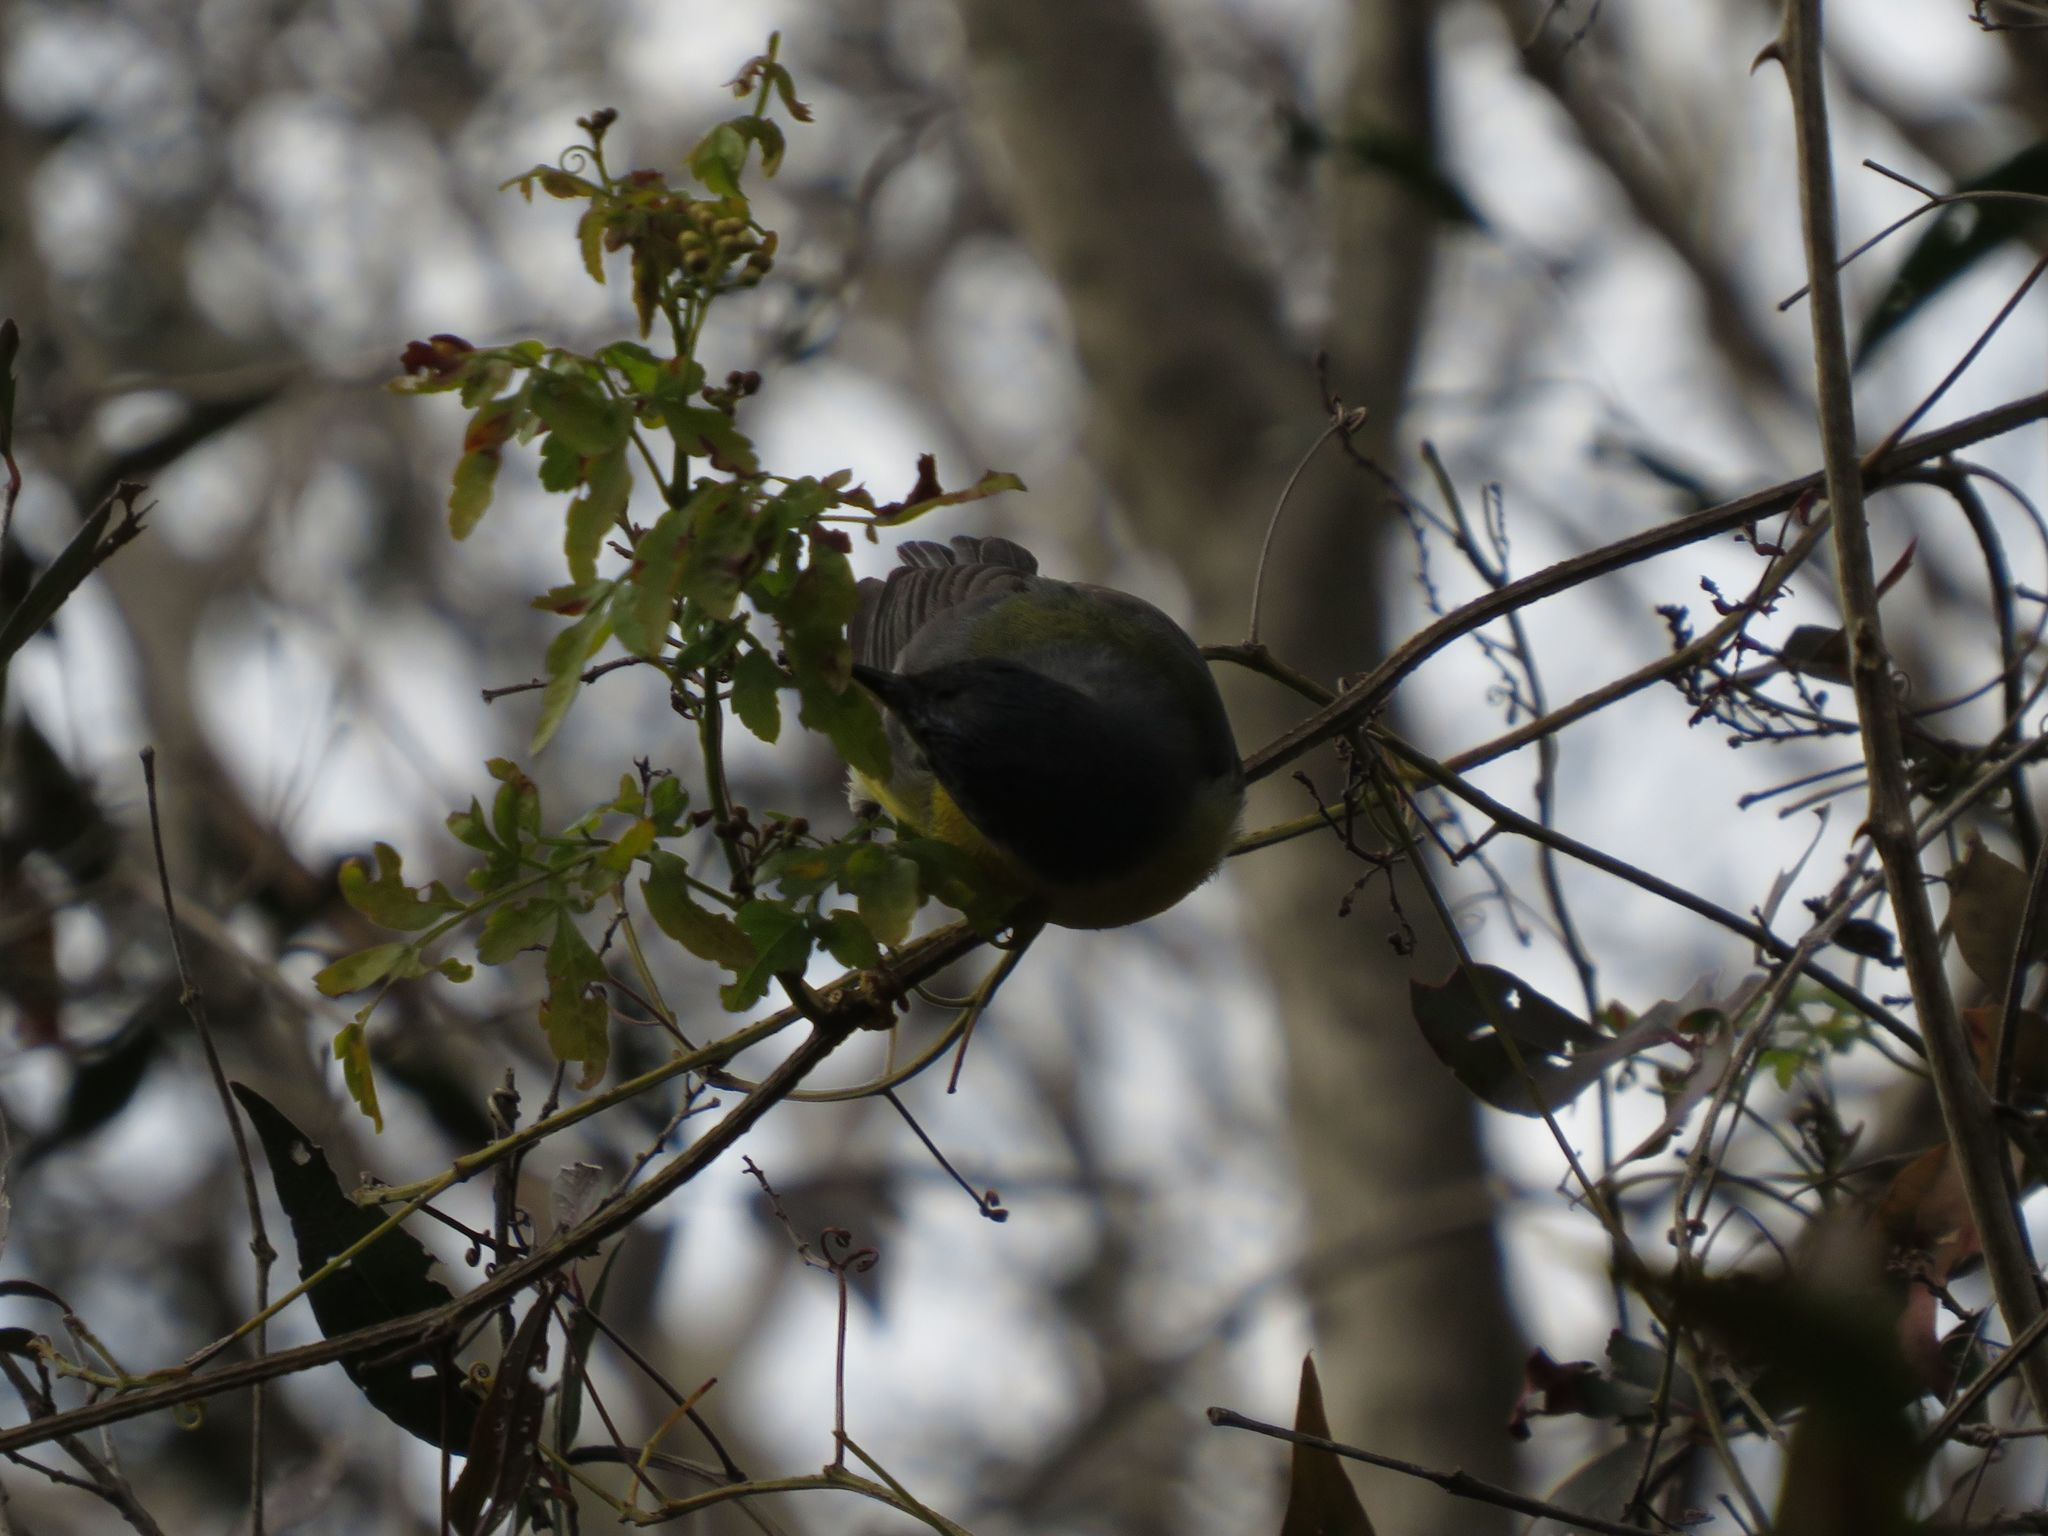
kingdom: Animalia
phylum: Chordata
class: Aves
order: Passeriformes
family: Parulidae
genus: Setophaga
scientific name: Setophaga pitiayumi
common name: Tropical parula
